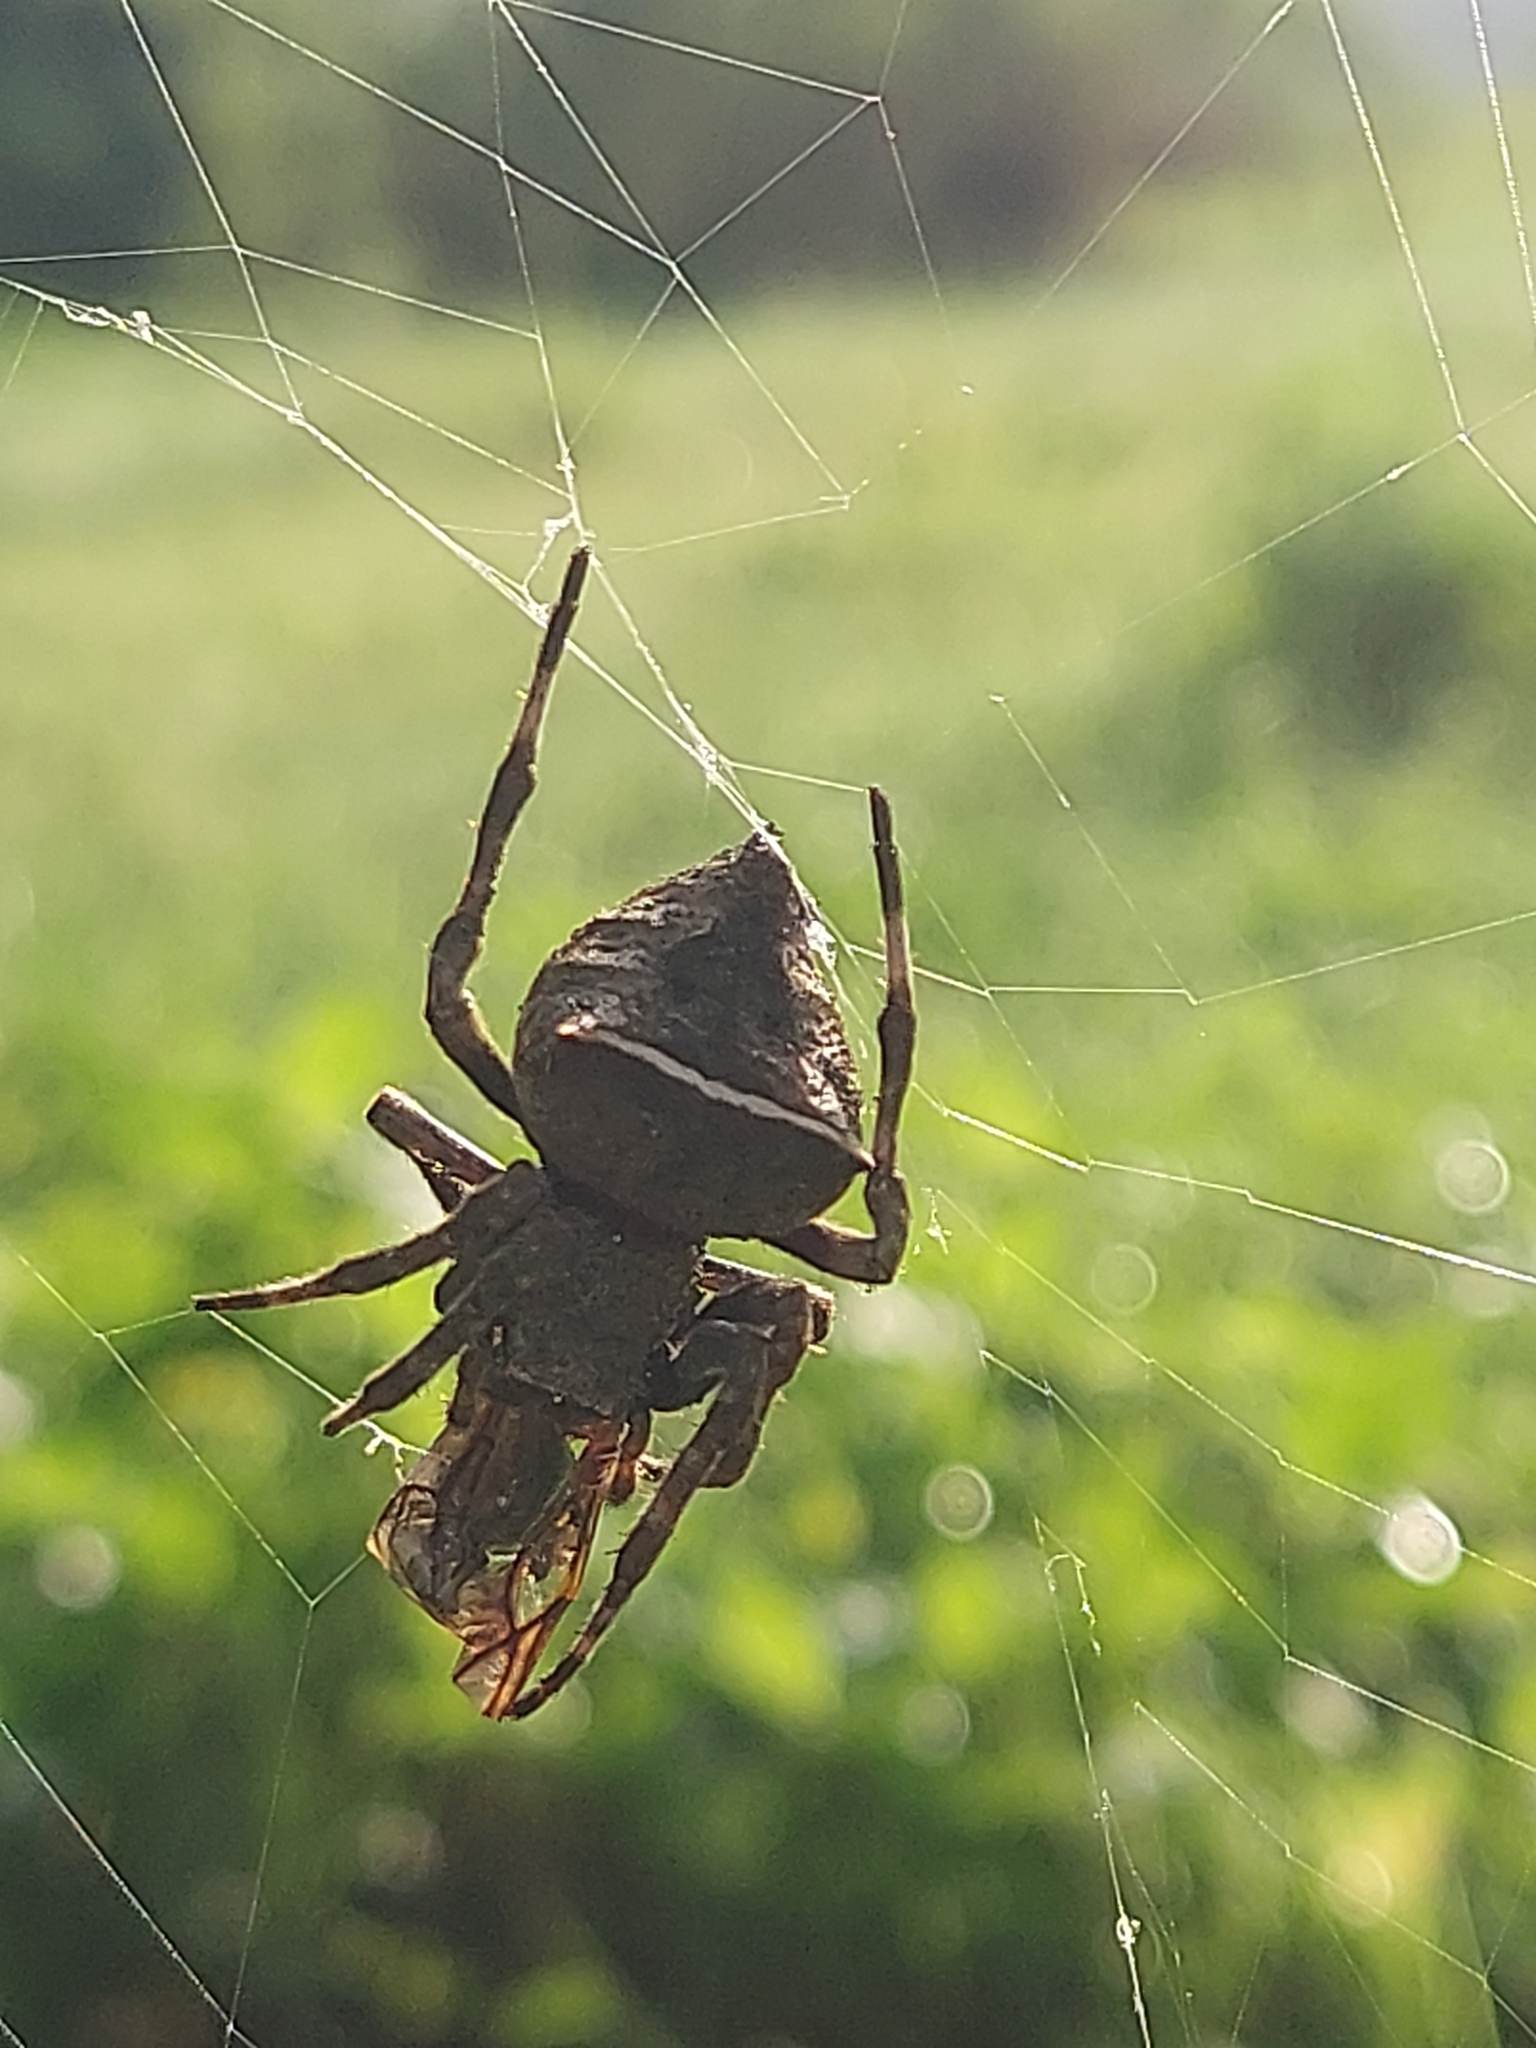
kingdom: Animalia
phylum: Arthropoda
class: Arachnida
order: Araneae
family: Araneidae
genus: Parawixia
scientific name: Parawixia dehaani
